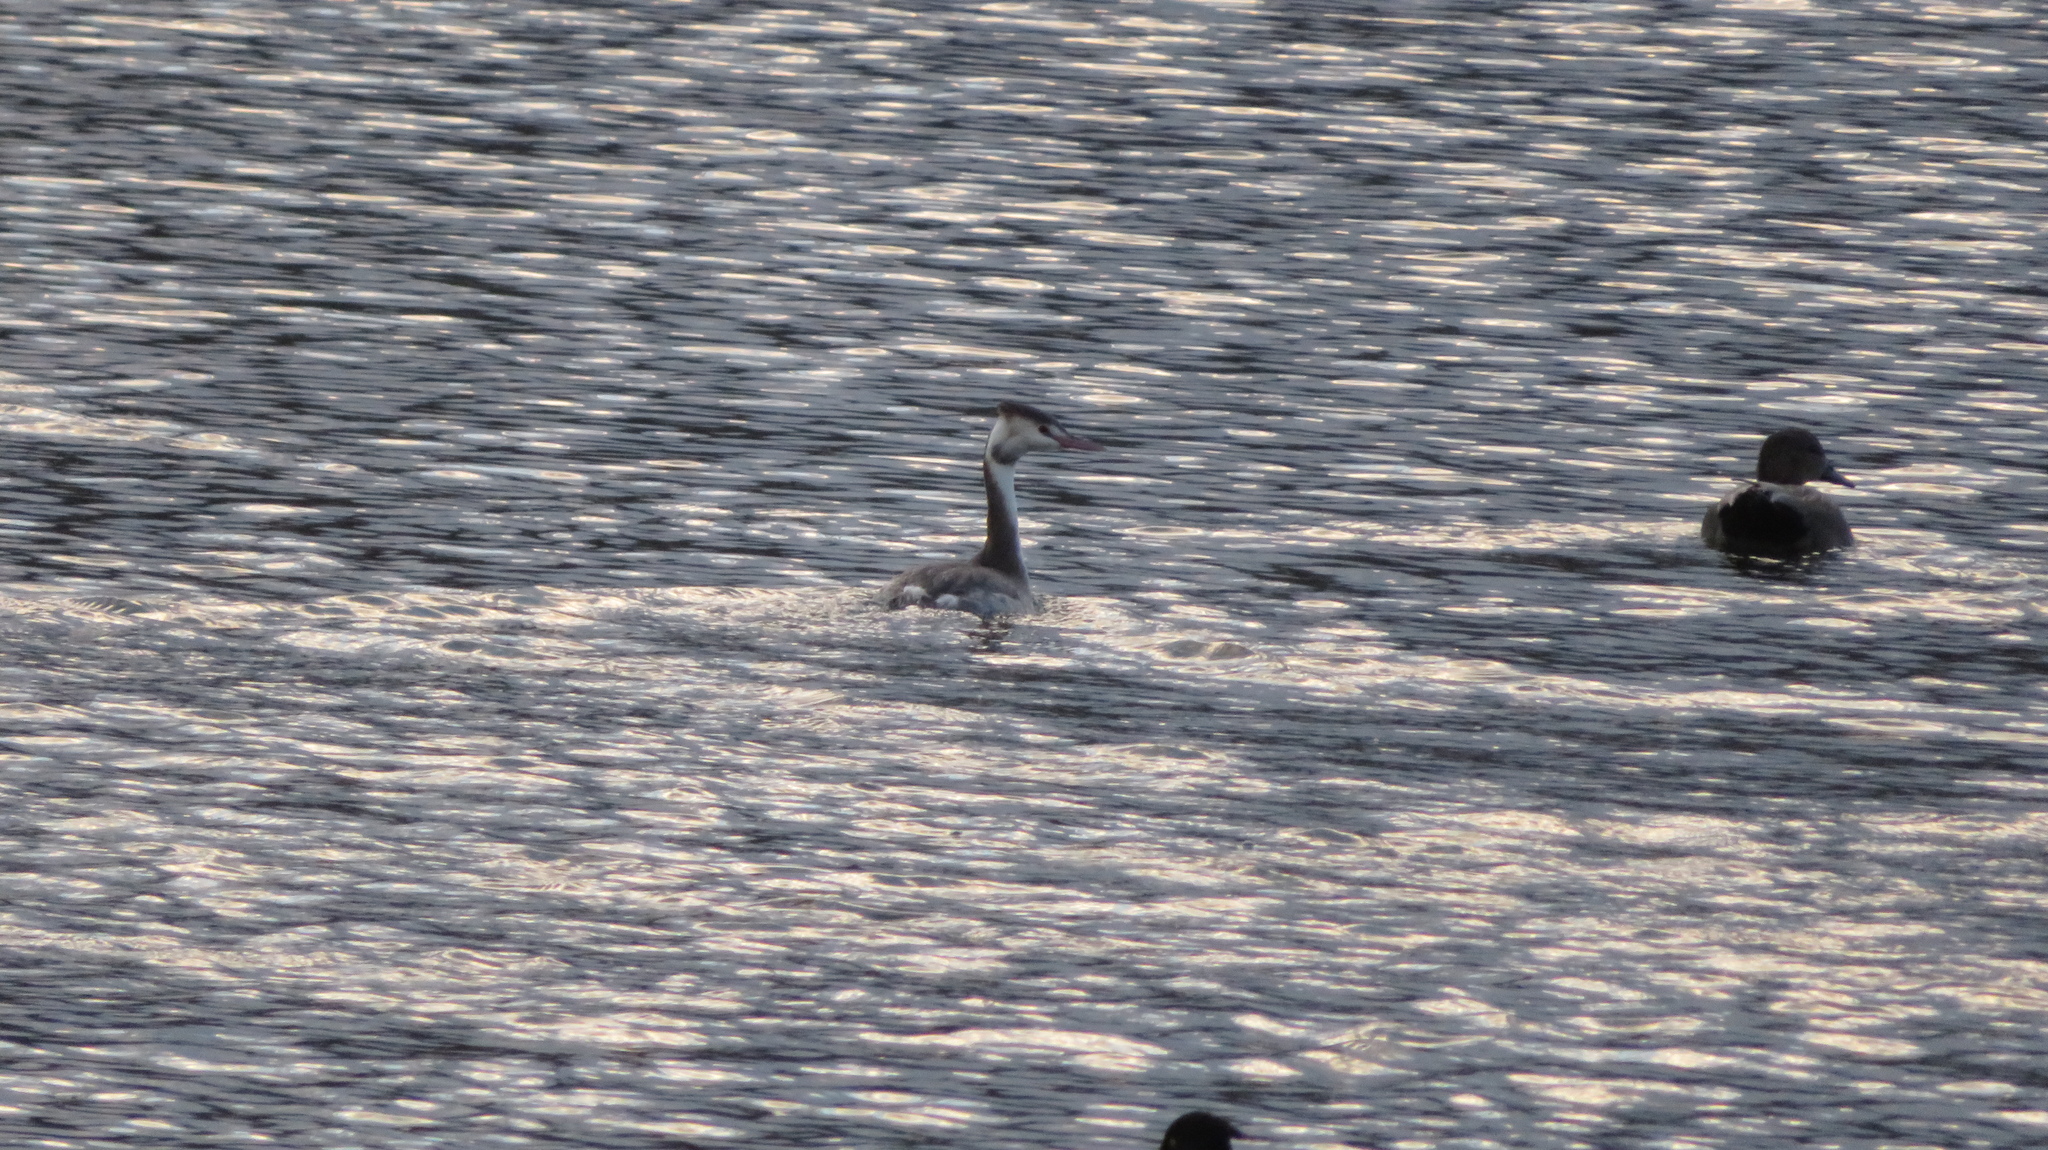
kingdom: Animalia
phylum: Chordata
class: Aves
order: Podicipediformes
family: Podicipedidae
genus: Podiceps
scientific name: Podiceps cristatus
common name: Great crested grebe
